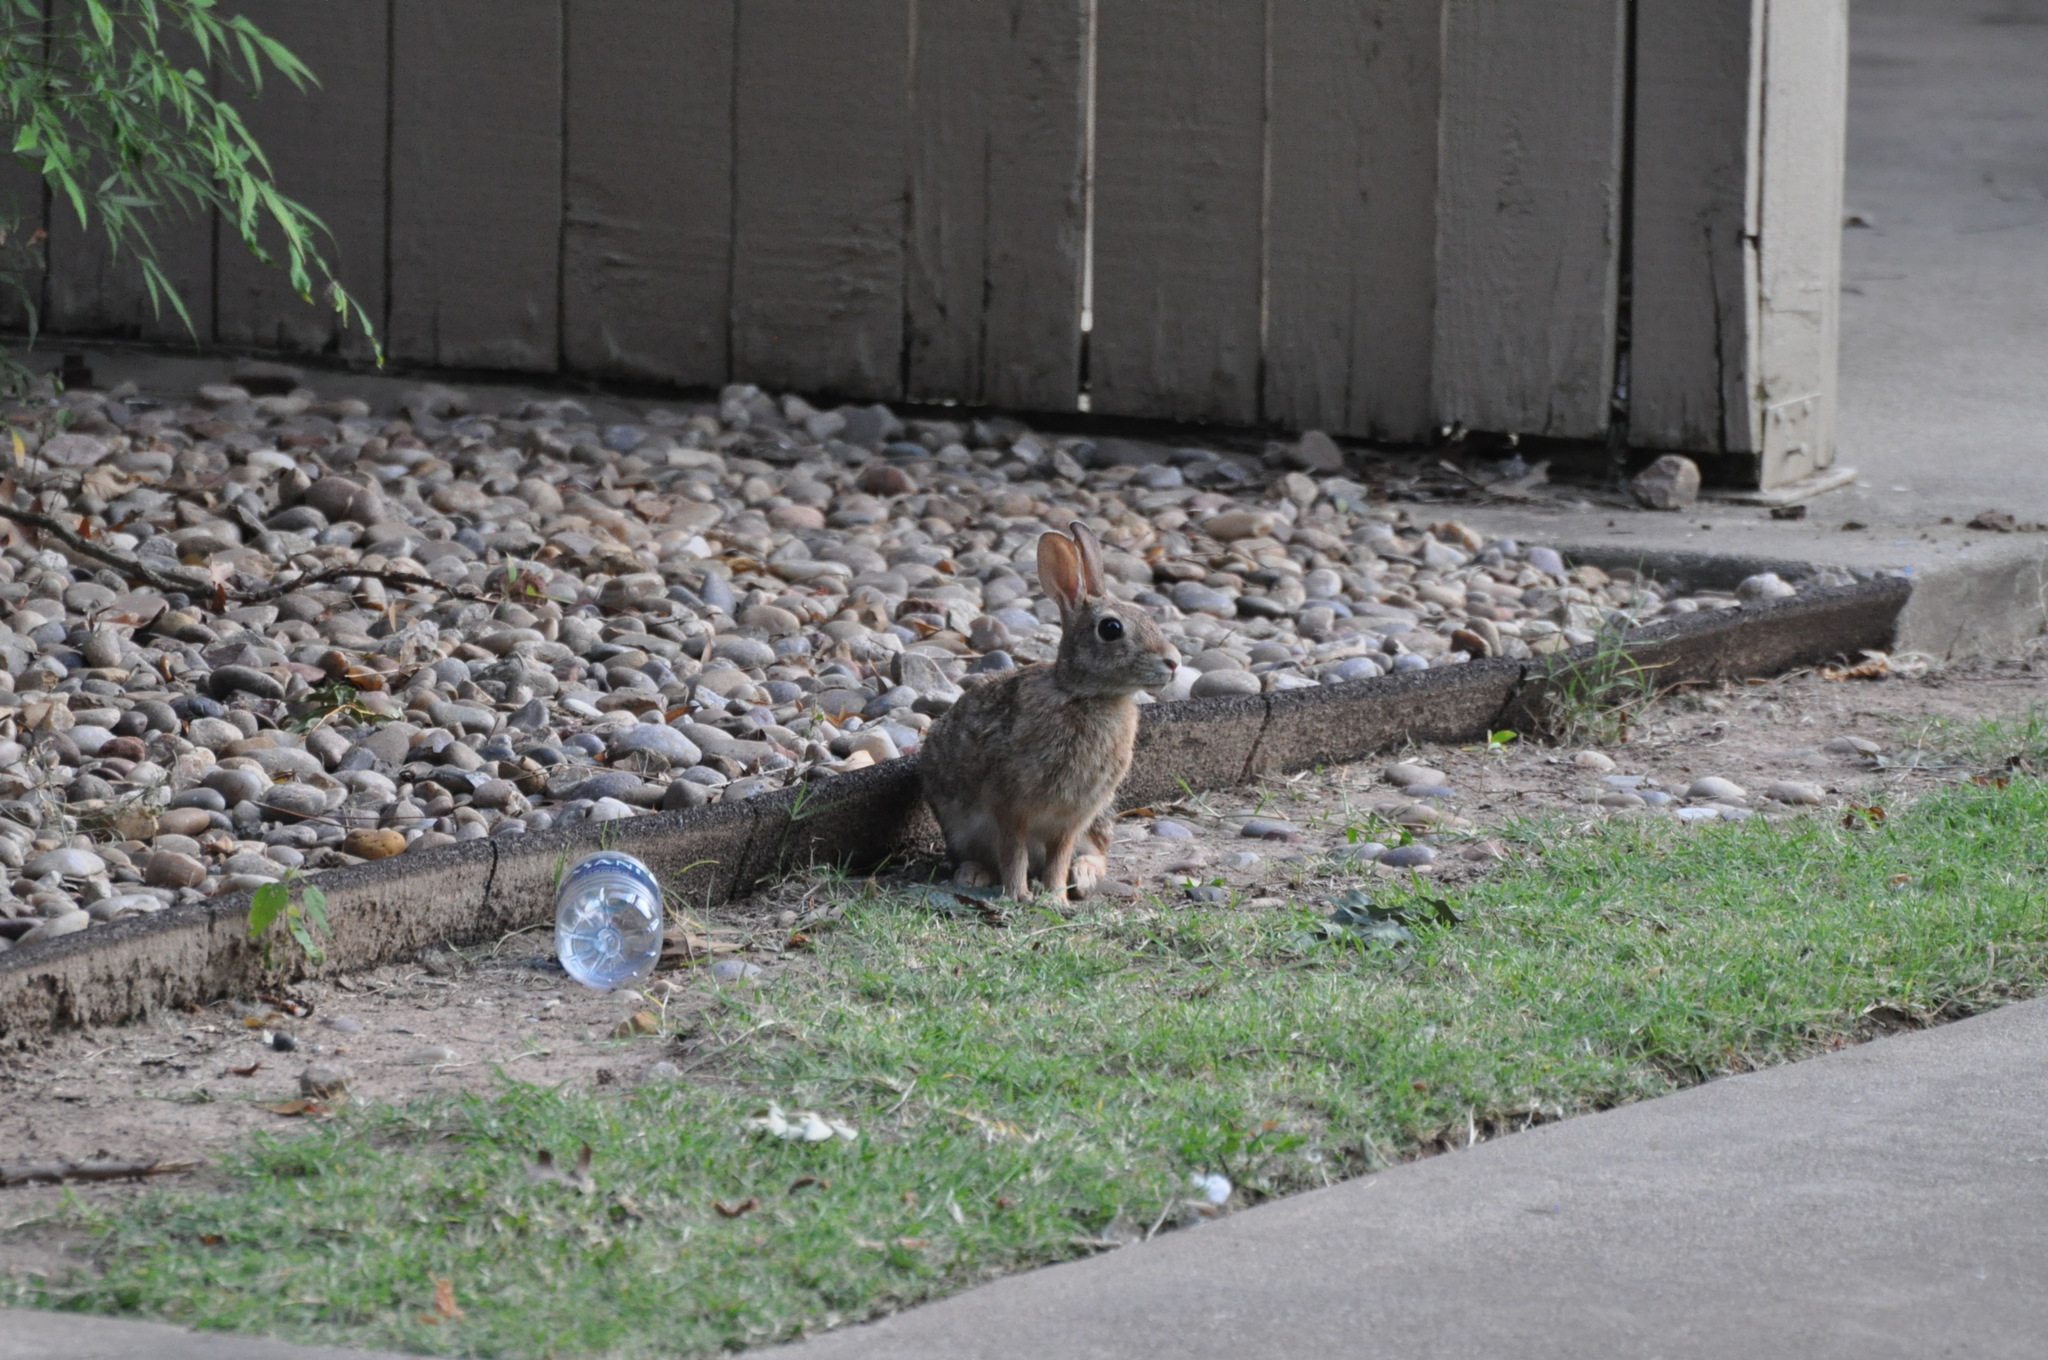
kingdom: Animalia
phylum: Chordata
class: Mammalia
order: Lagomorpha
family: Leporidae
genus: Sylvilagus
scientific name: Sylvilagus floridanus
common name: Eastern cottontail
